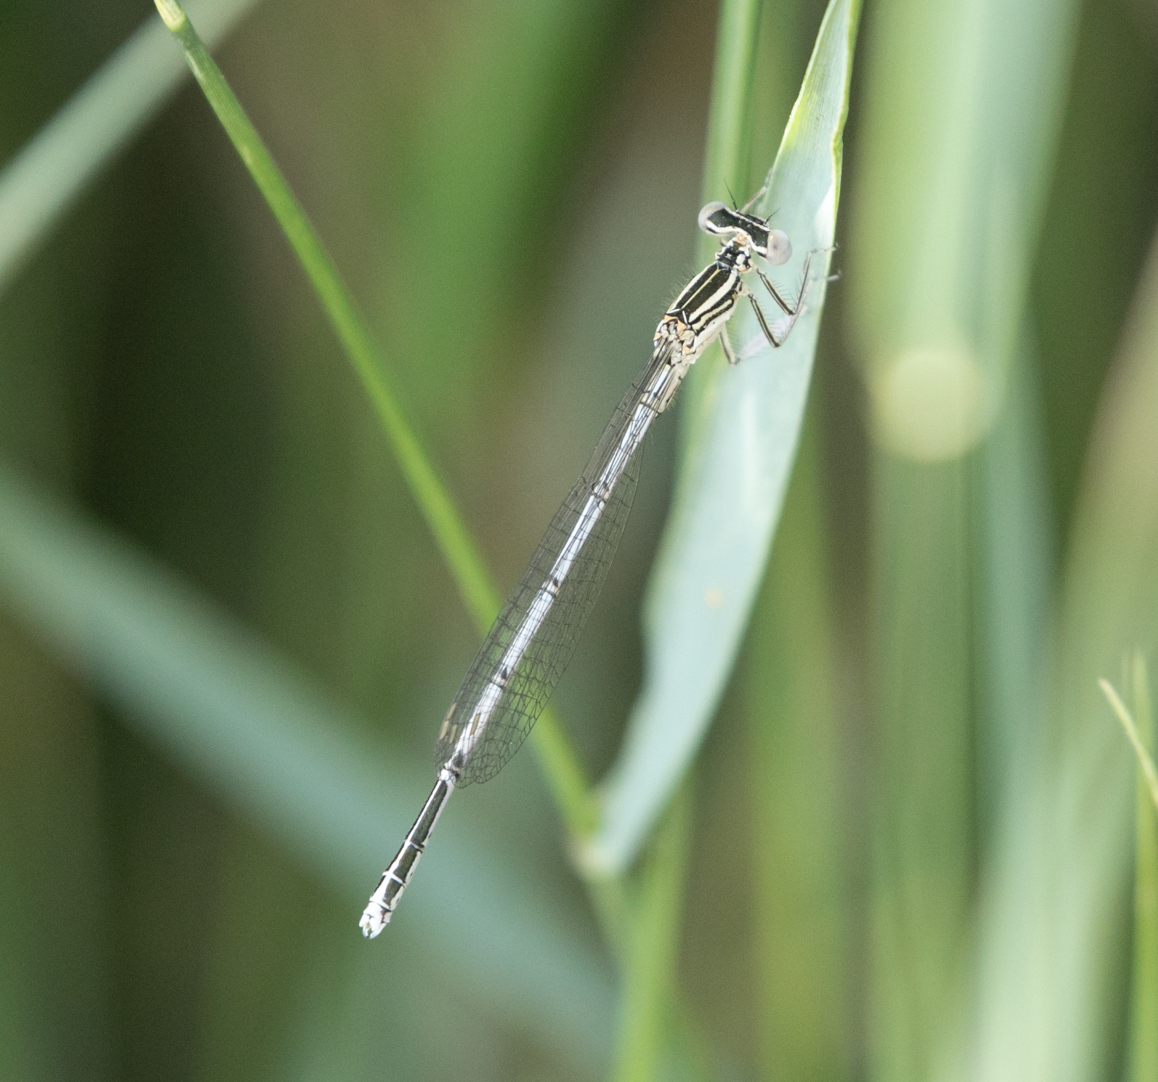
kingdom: Animalia
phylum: Arthropoda
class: Insecta
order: Odonata
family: Platycnemididae
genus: Platycnemis
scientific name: Platycnemis pennipes
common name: White-legged damselfly
